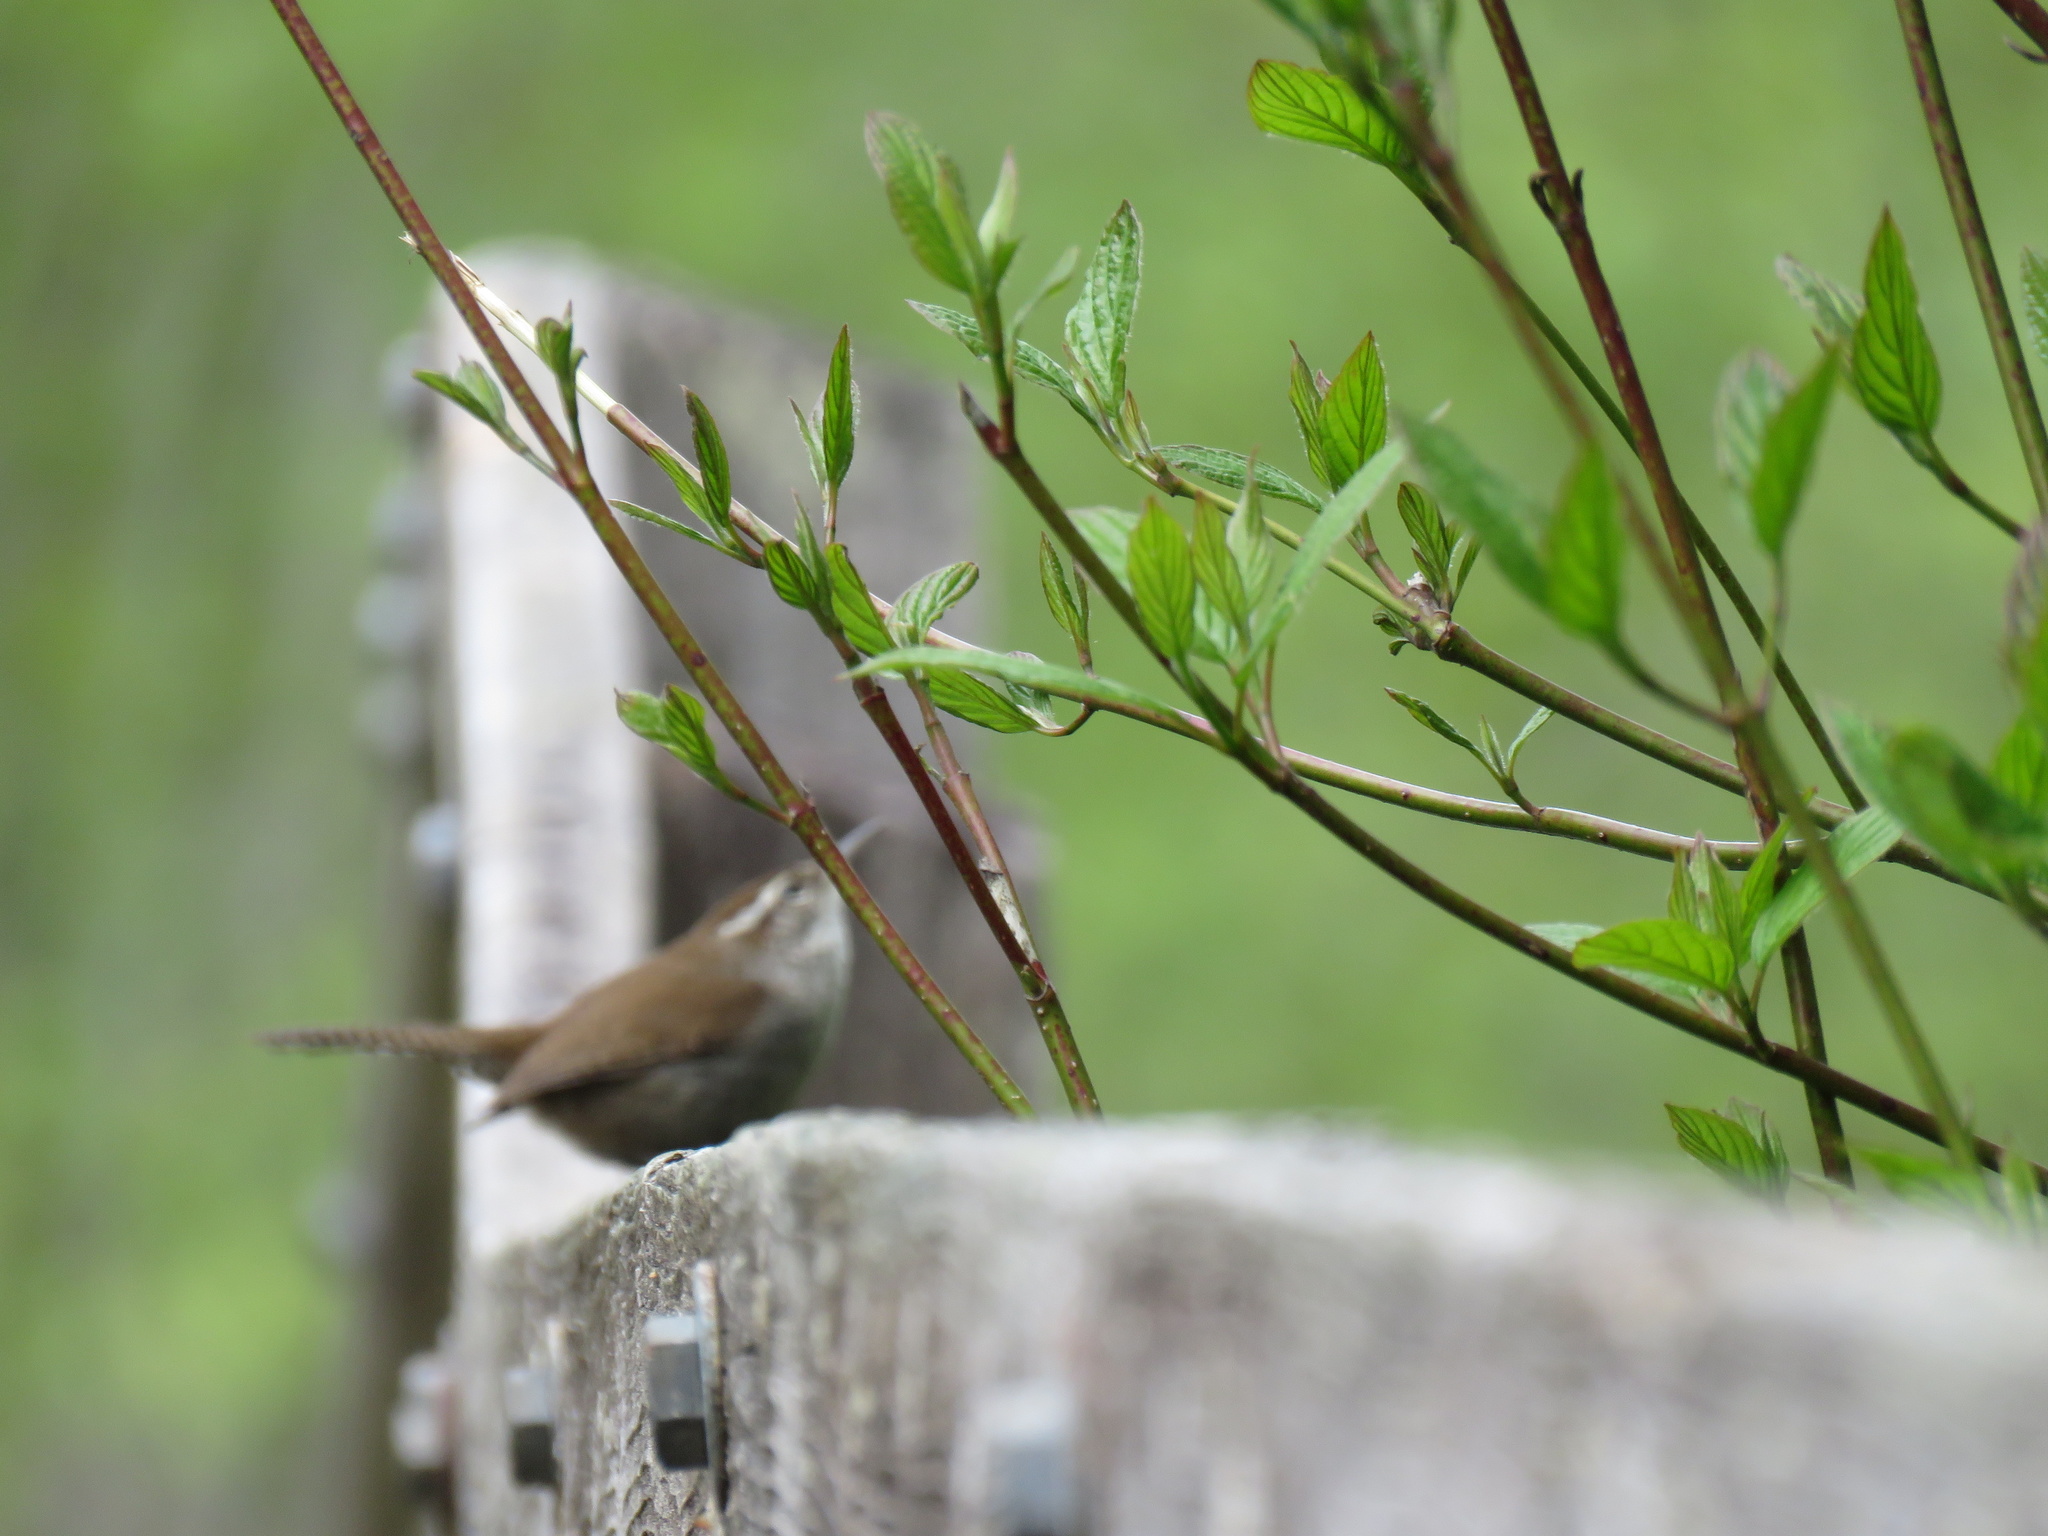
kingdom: Animalia
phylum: Chordata
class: Aves
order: Passeriformes
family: Troglodytidae
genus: Thryomanes
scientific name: Thryomanes bewickii
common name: Bewick's wren
